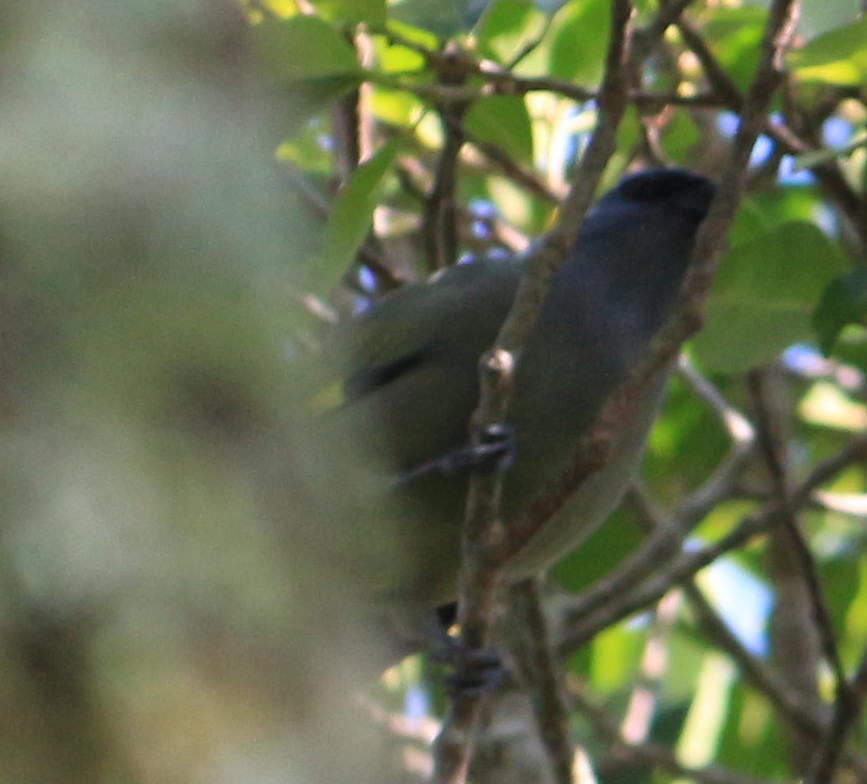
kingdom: Animalia
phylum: Chordata
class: Aves
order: Passeriformes
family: Thraupidae
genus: Thraupis
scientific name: Thraupis abbas
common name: Yellow-winged tanager
